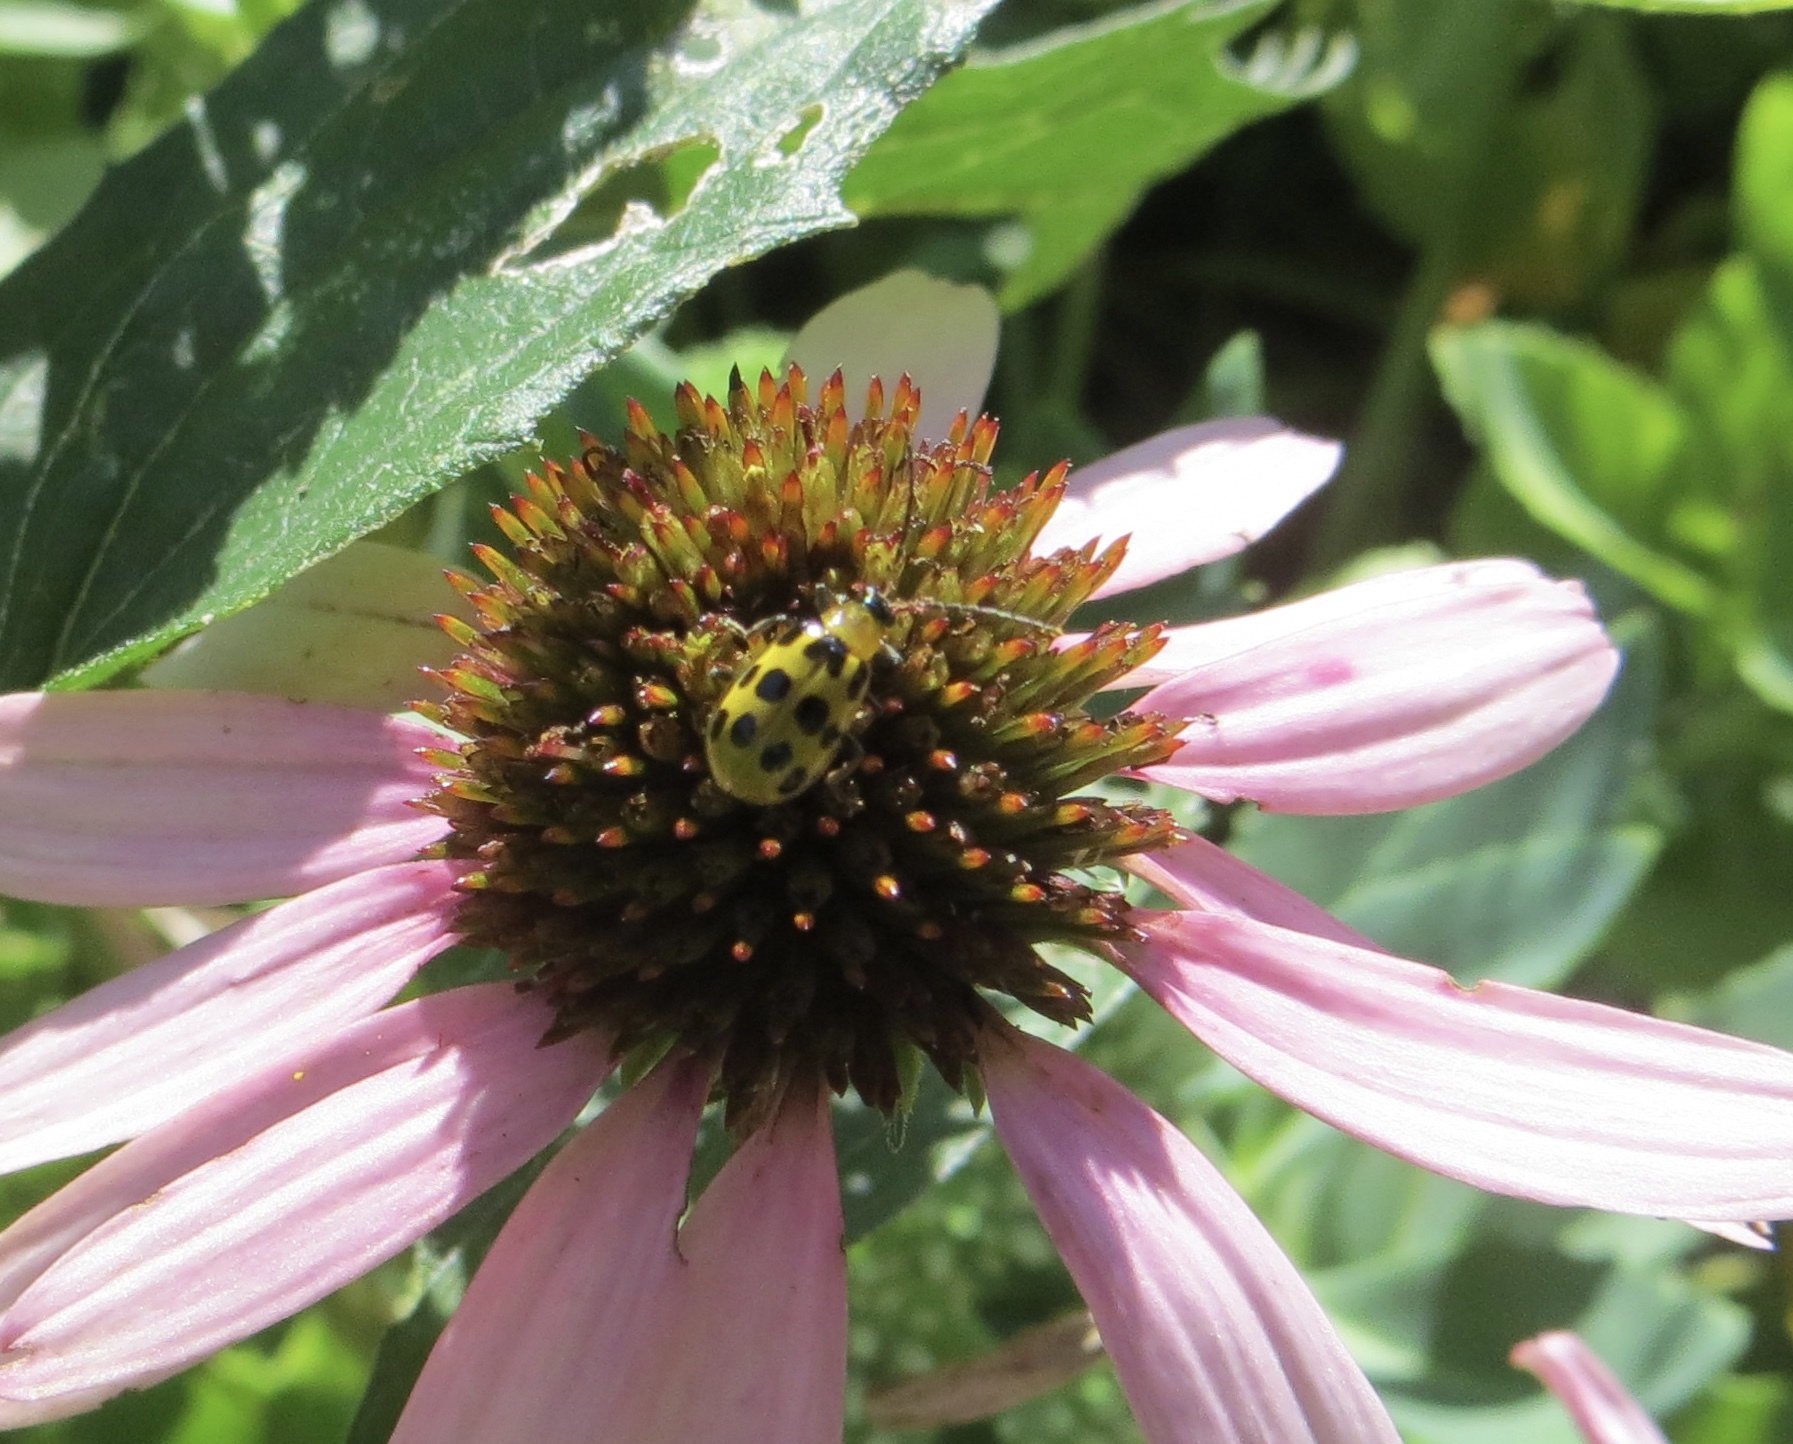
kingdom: Animalia
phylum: Arthropoda
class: Insecta
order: Coleoptera
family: Chrysomelidae
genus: Diabrotica
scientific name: Diabrotica undecimpunctata
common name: Spotted cucumber beetle
